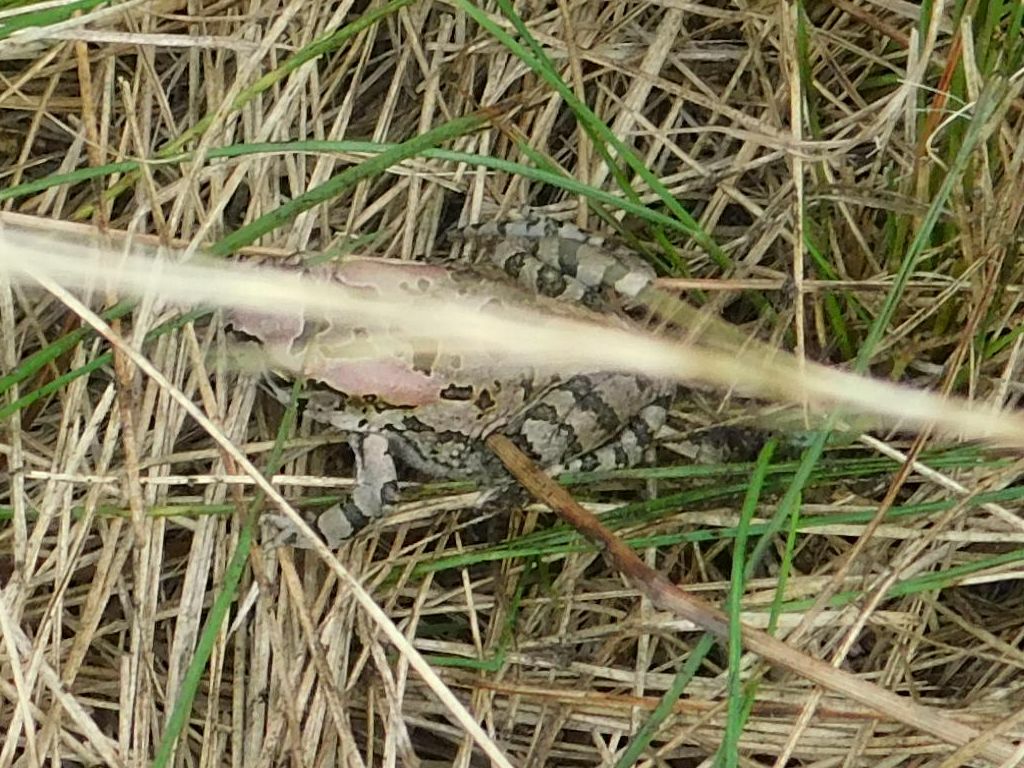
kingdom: Animalia
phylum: Chordata
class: Amphibia
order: Anura
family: Bufonidae
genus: Sclerophrys
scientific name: Sclerophrys capensis
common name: Ranger’s toad
